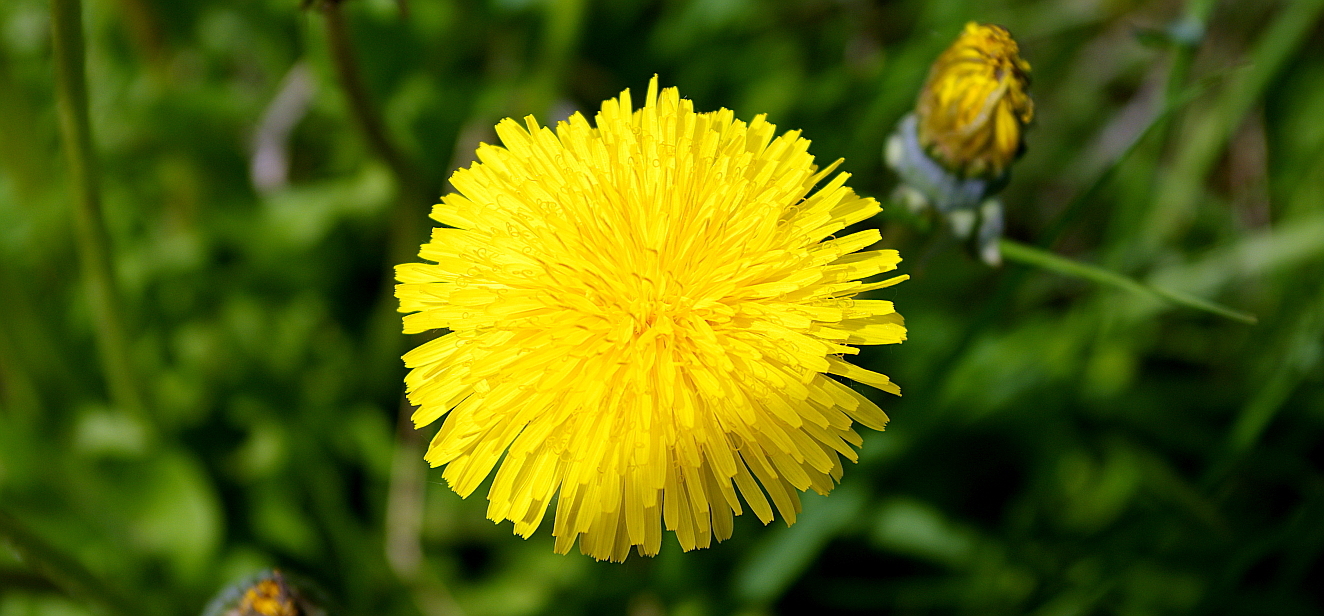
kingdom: Plantae
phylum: Tracheophyta
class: Magnoliopsida
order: Asterales
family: Asteraceae
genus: Taraxacum
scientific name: Taraxacum officinale
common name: Common dandelion
